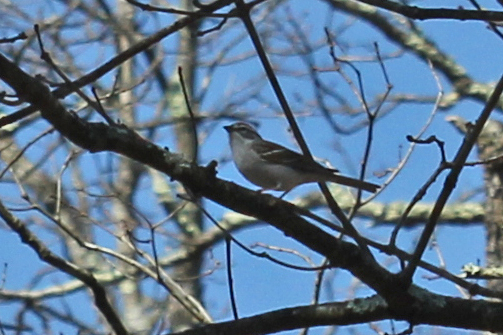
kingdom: Animalia
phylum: Chordata
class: Aves
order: Passeriformes
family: Passerellidae
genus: Spizella
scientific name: Spizella passerina
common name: Chipping sparrow
